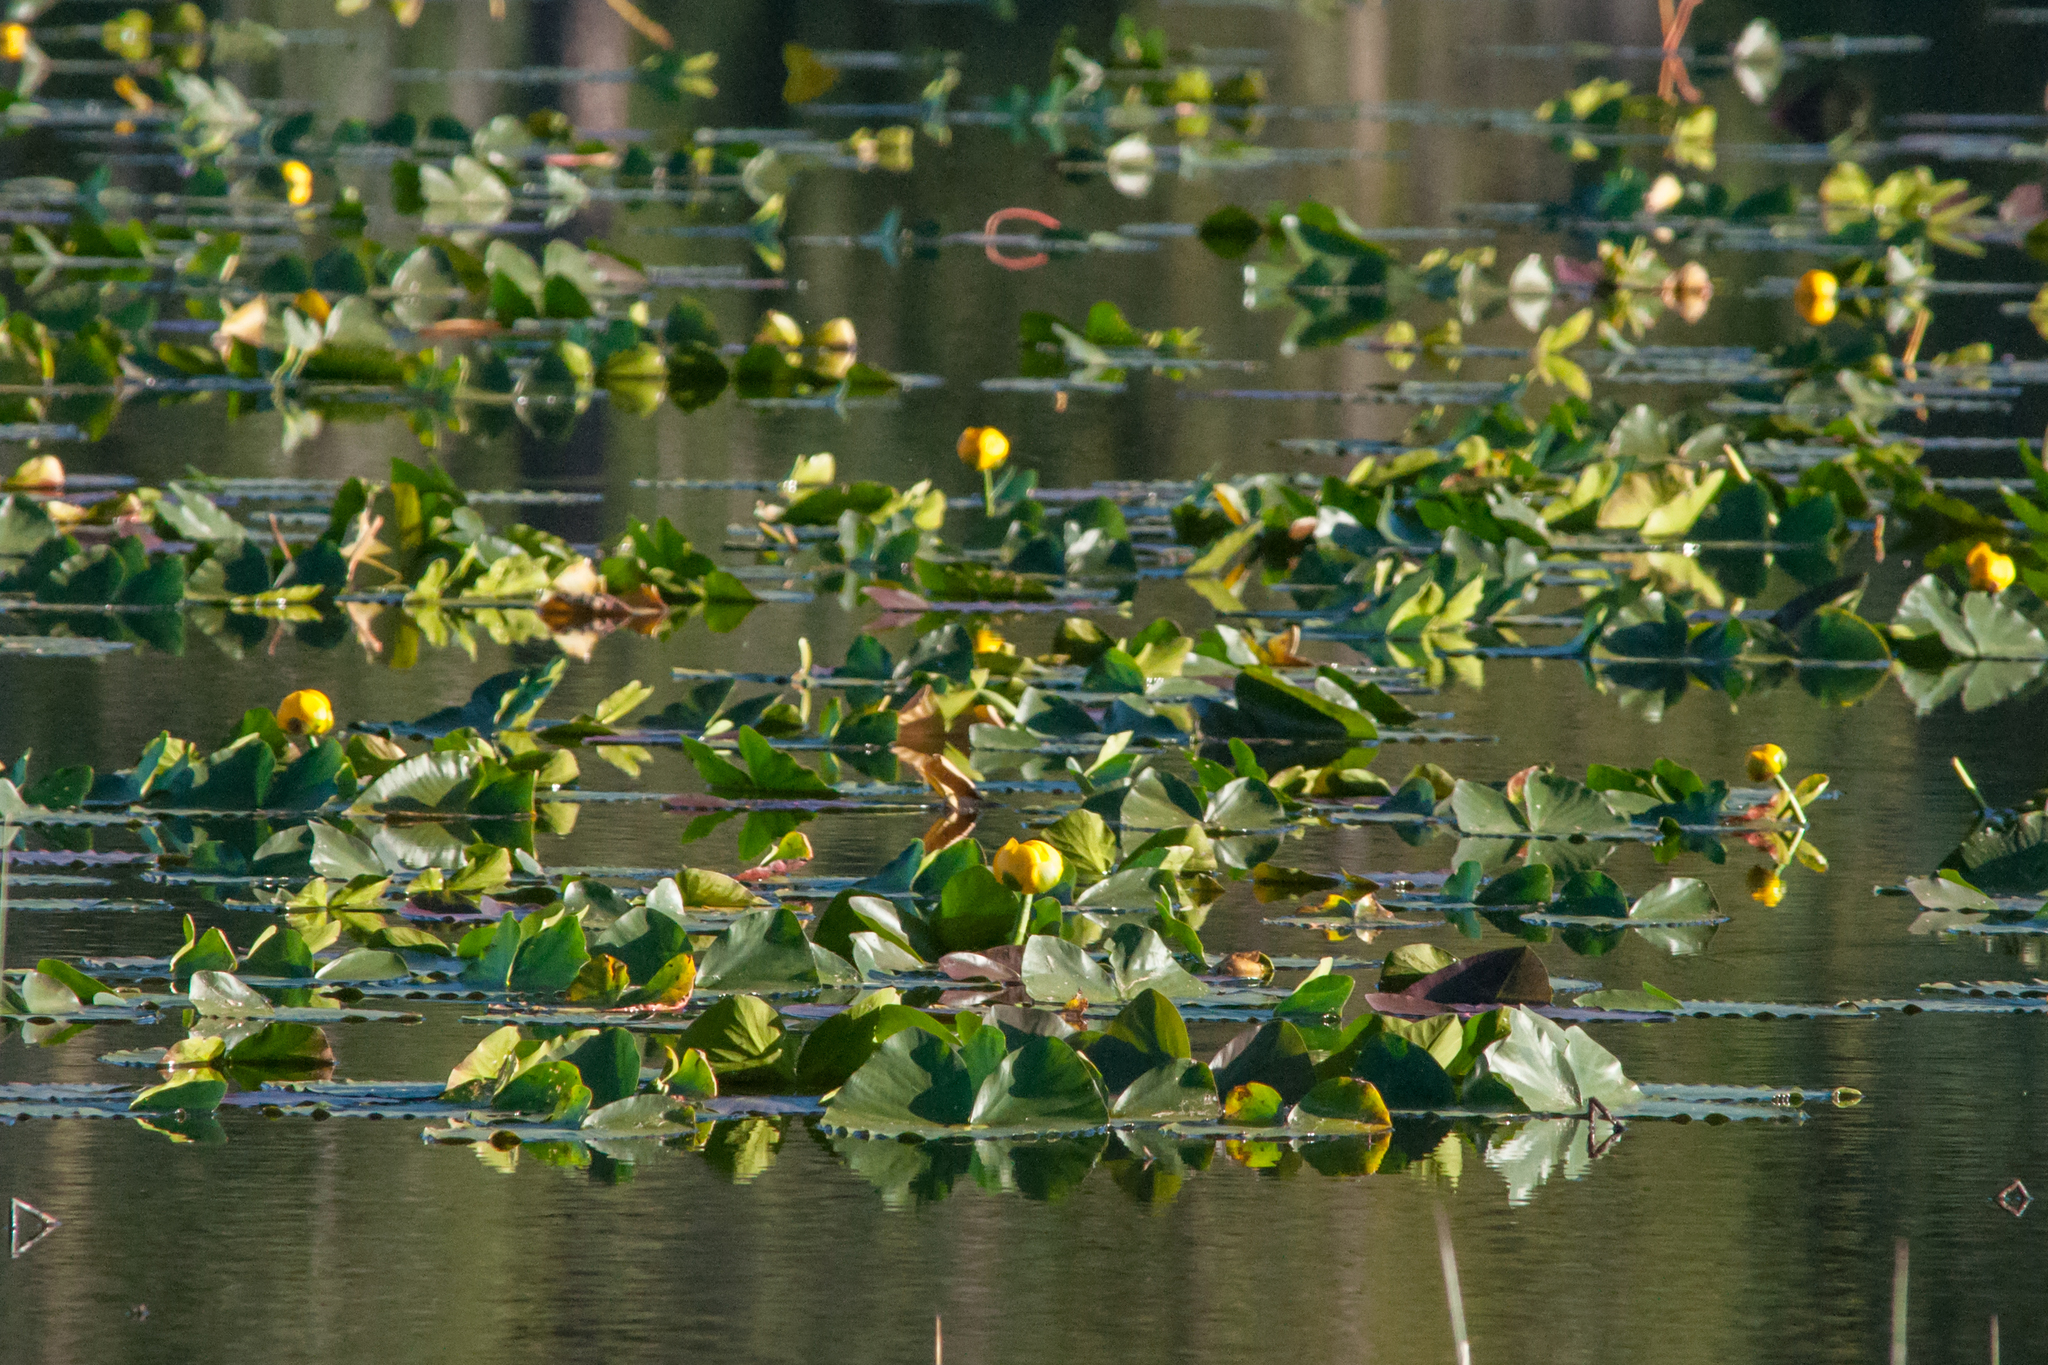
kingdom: Plantae
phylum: Tracheophyta
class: Magnoliopsida
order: Nymphaeales
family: Nymphaeaceae
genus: Nuphar
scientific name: Nuphar polysepala
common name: Rocky mountain cow-lily
